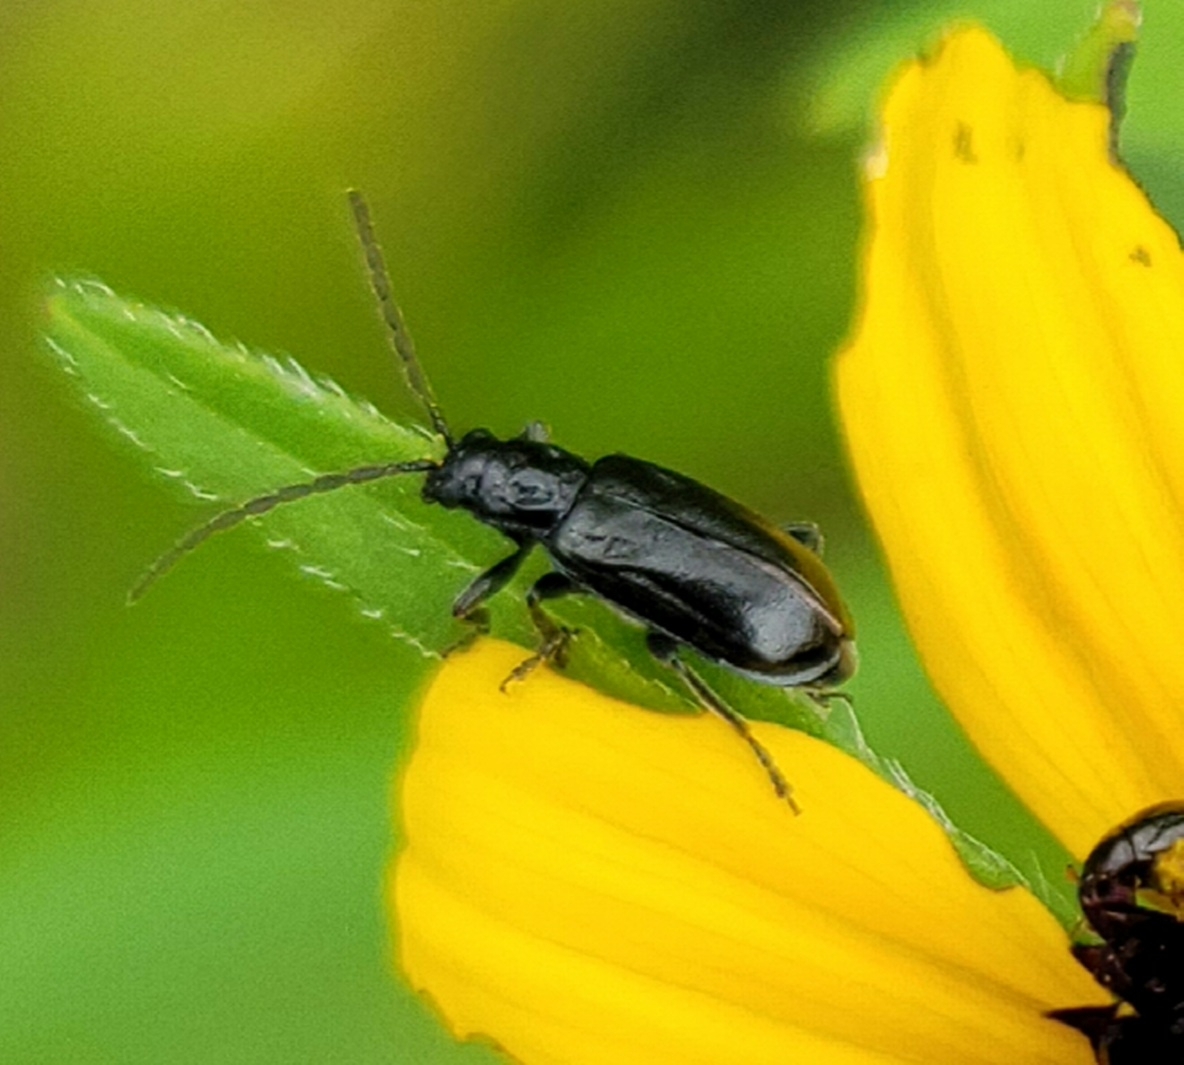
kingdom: Animalia
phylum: Arthropoda
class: Insecta
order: Coleoptera
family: Chrysomelidae
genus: Diabrotica
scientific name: Diabrotica cristata
